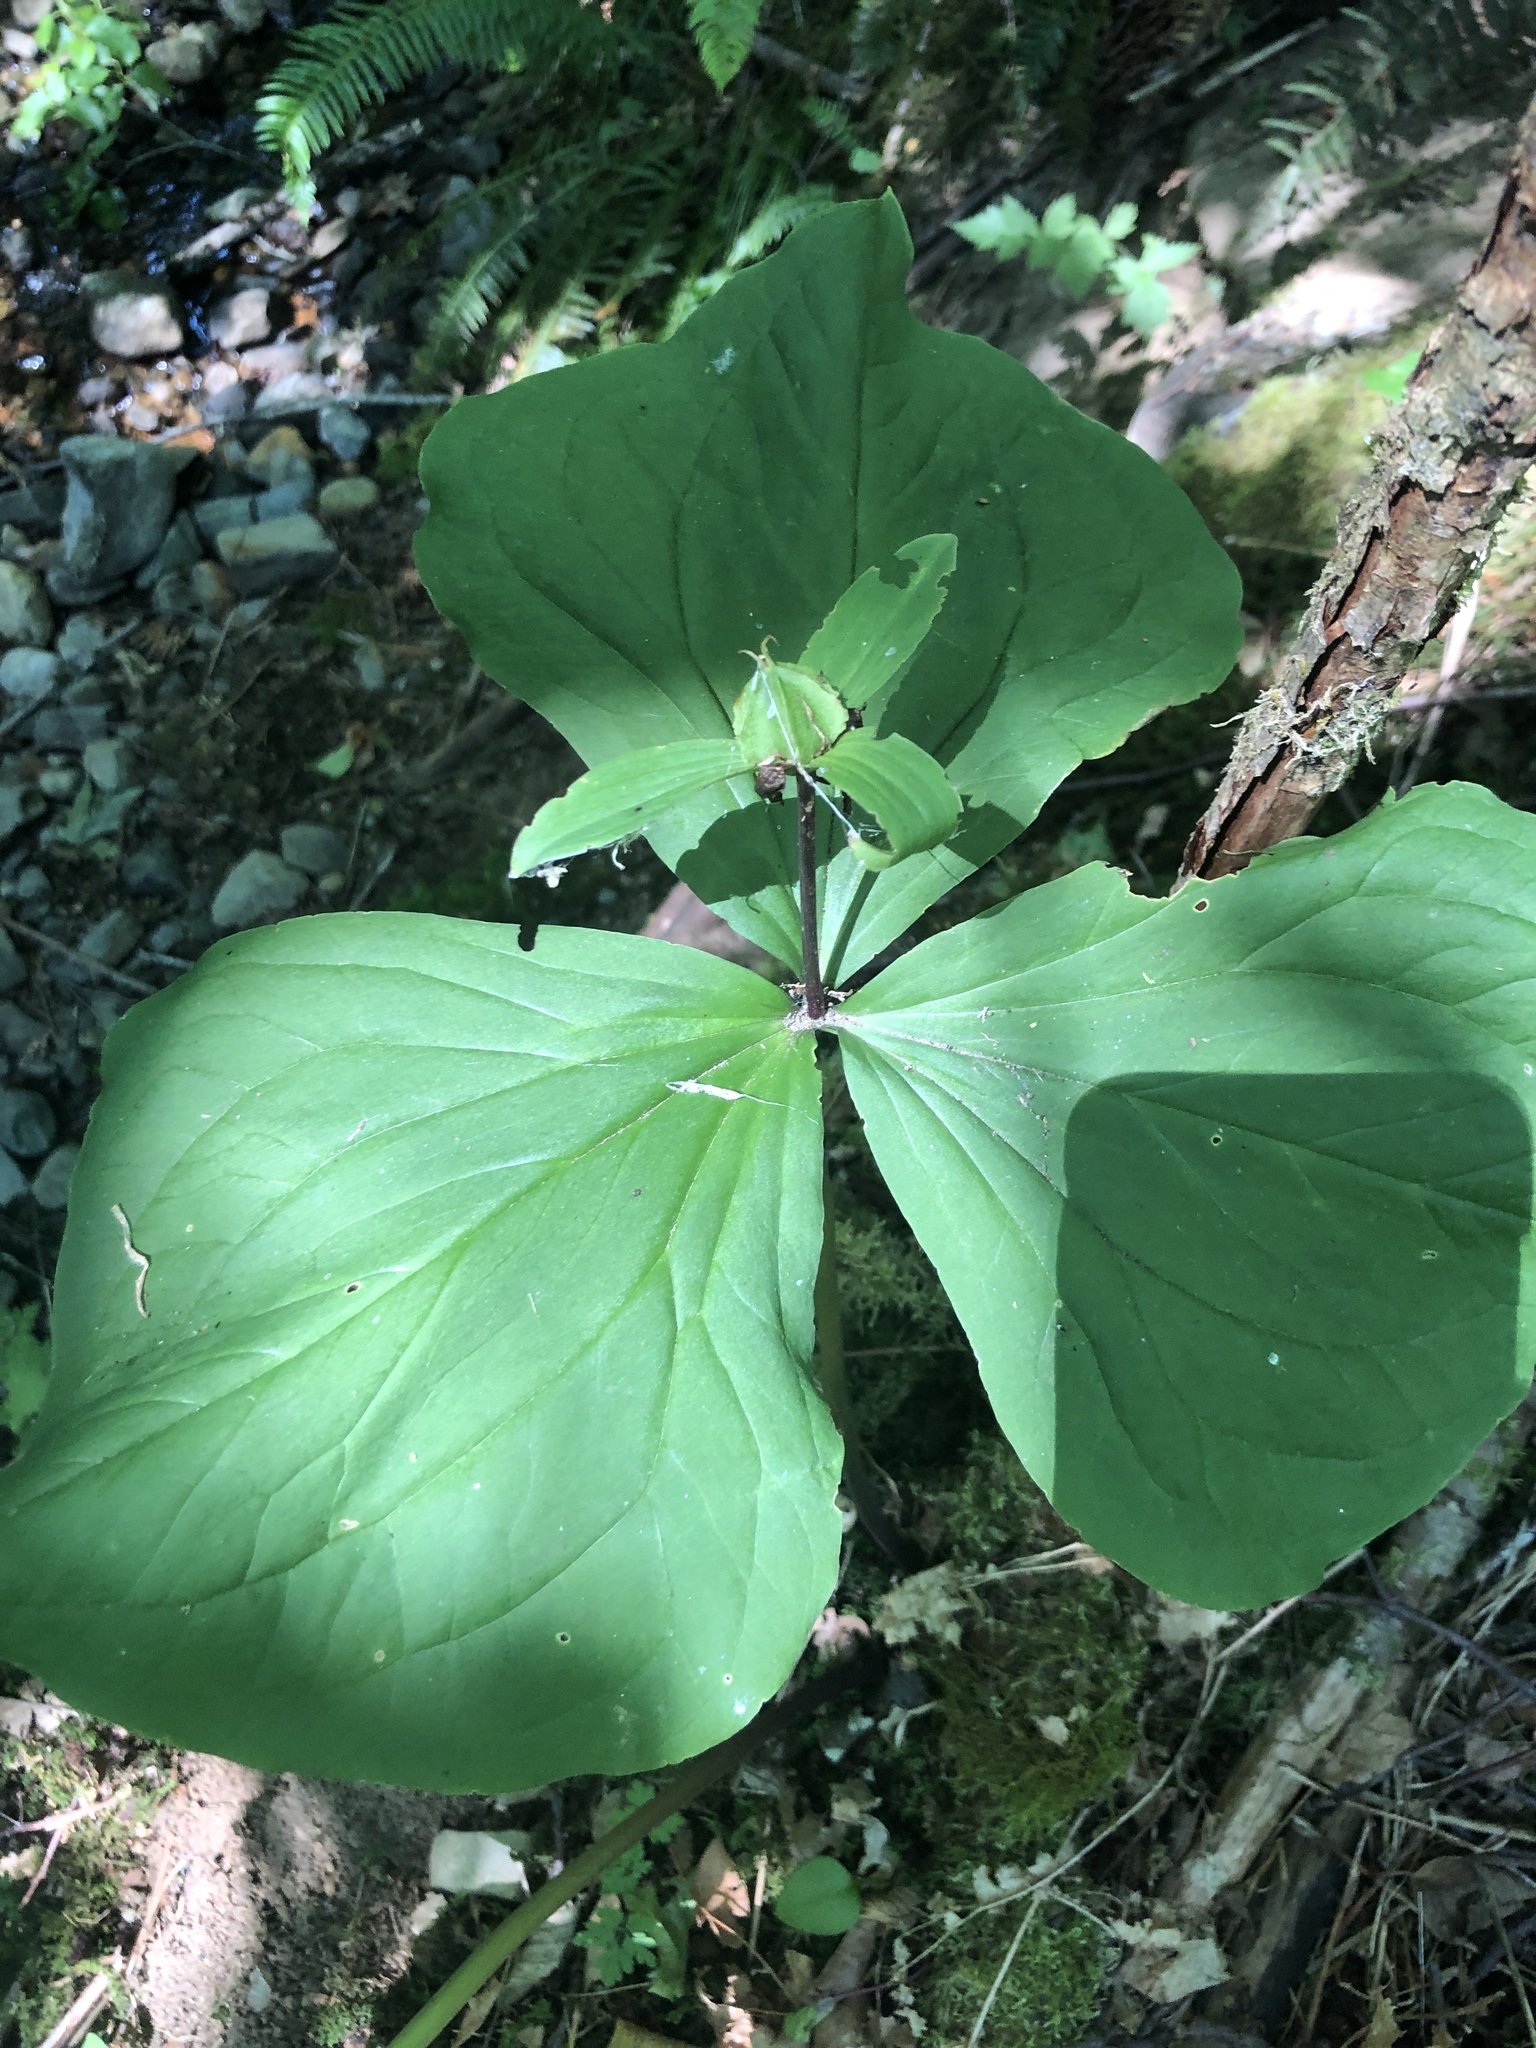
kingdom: Plantae
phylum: Tracheophyta
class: Liliopsida
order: Liliales
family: Melanthiaceae
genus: Trillium
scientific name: Trillium ovatum
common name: Pacific trillium
